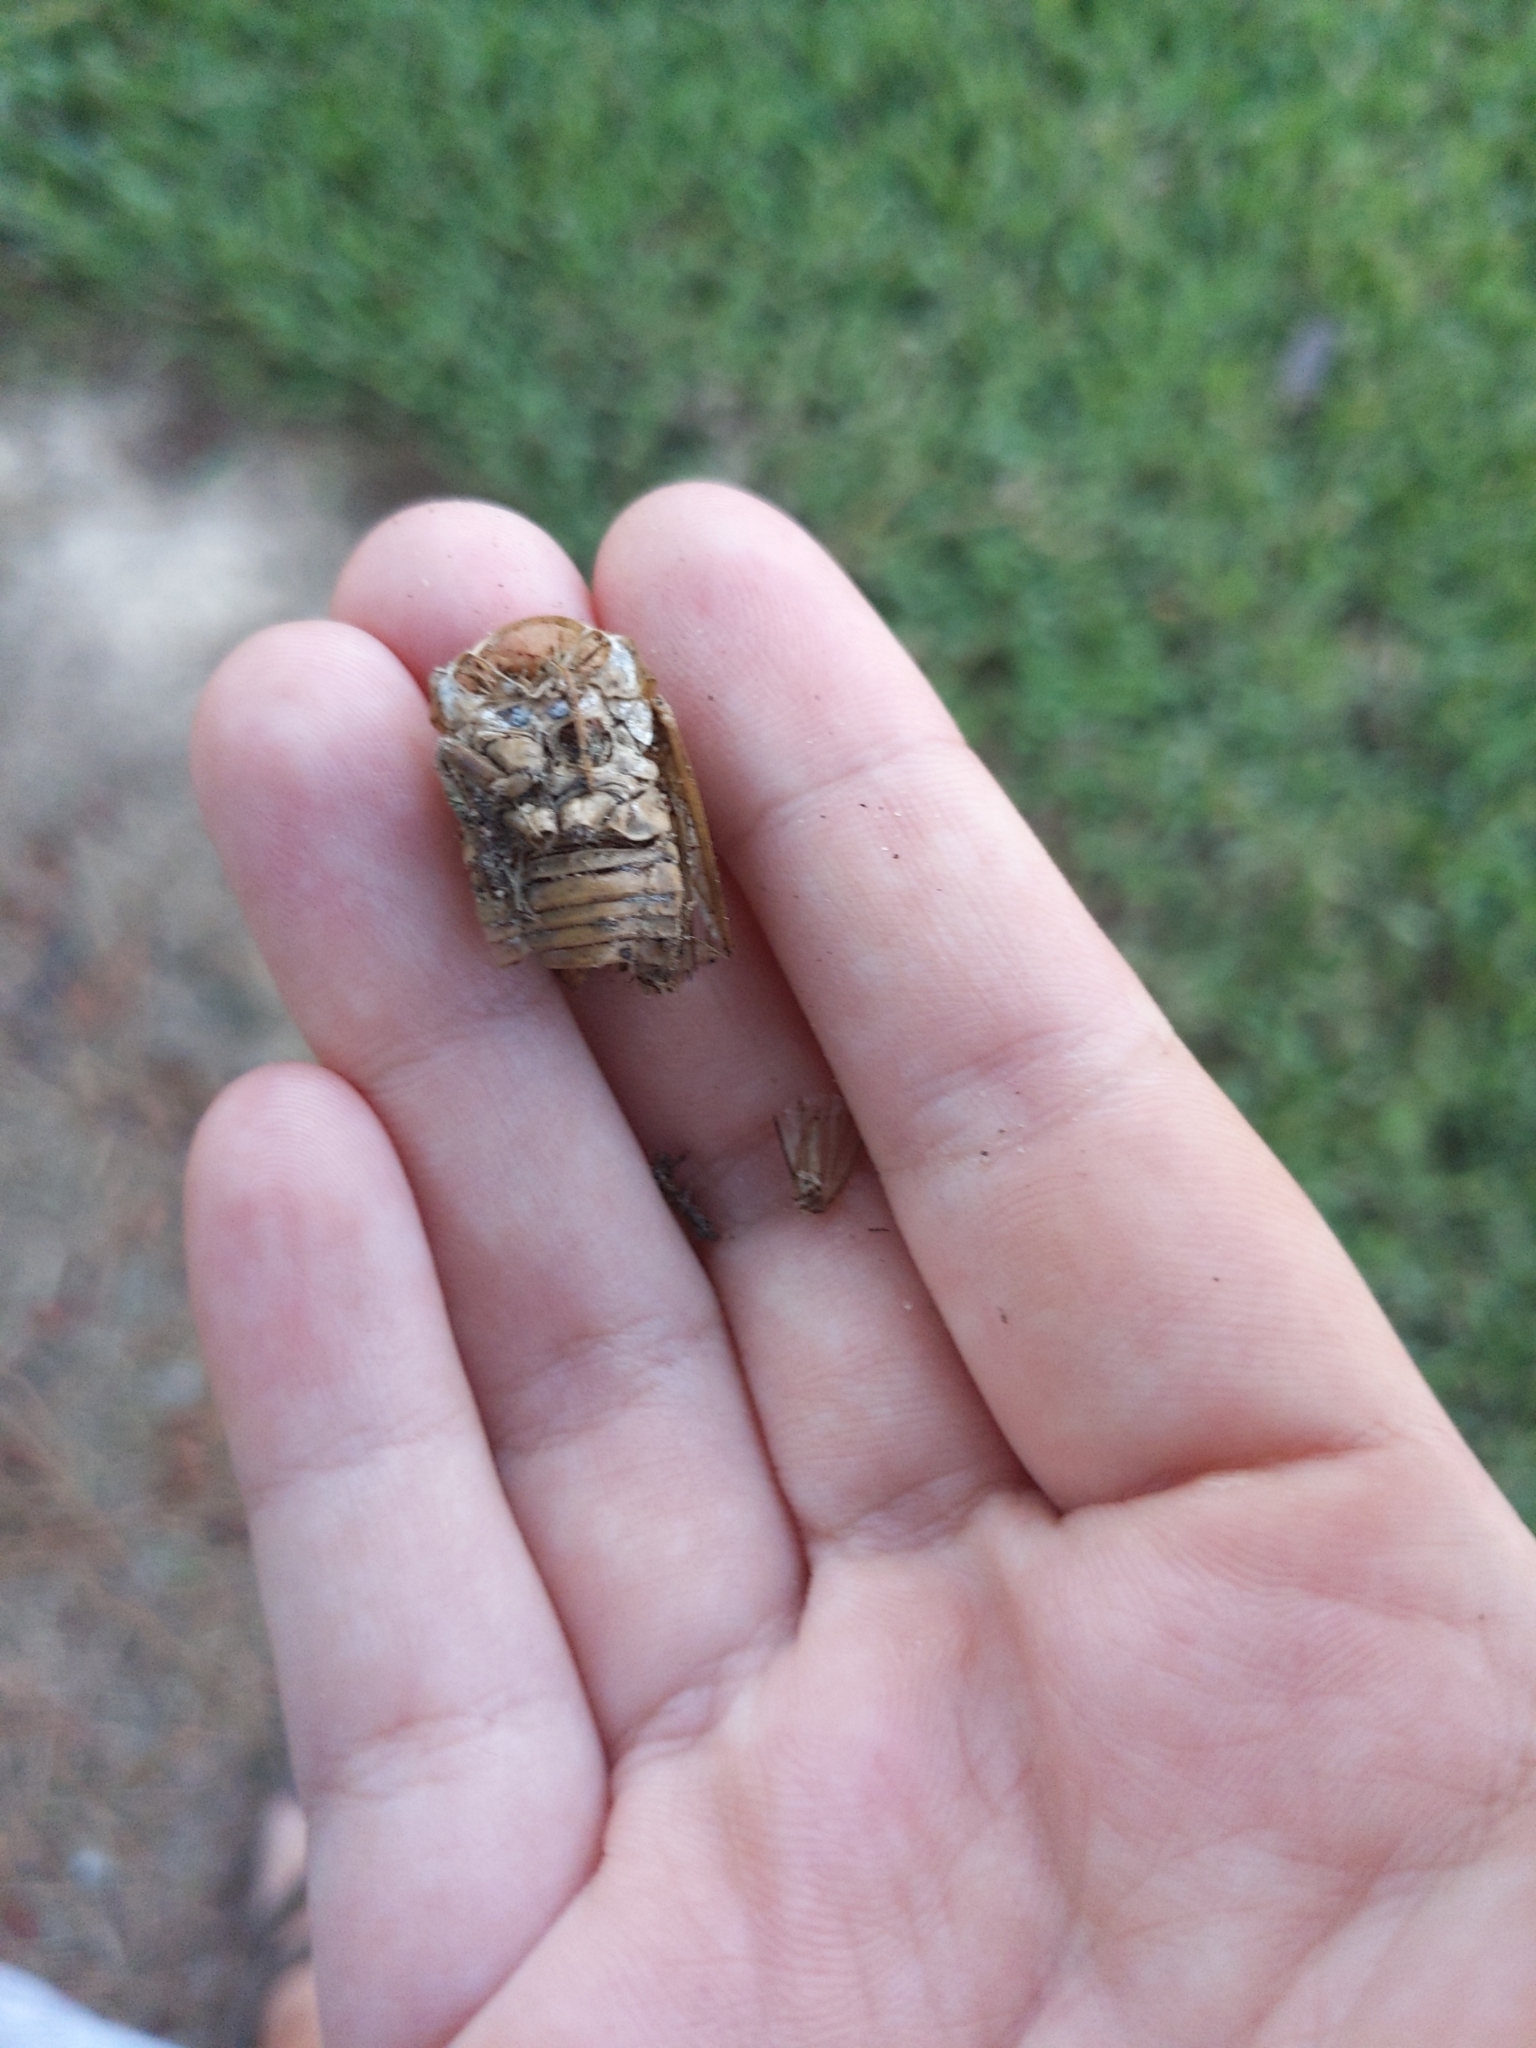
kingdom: Animalia
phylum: Arthropoda
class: Insecta
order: Hemiptera
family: Cicadidae
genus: Neotibicen
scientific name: Neotibicen superbus
